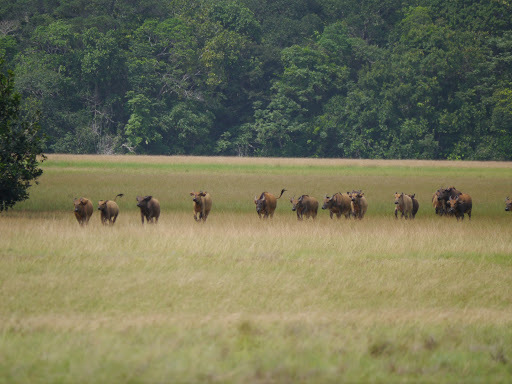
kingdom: Animalia
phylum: Chordata
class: Mammalia
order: Artiodactyla
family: Bovidae
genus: Syncerus
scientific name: Syncerus caffer
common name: African buffalo
